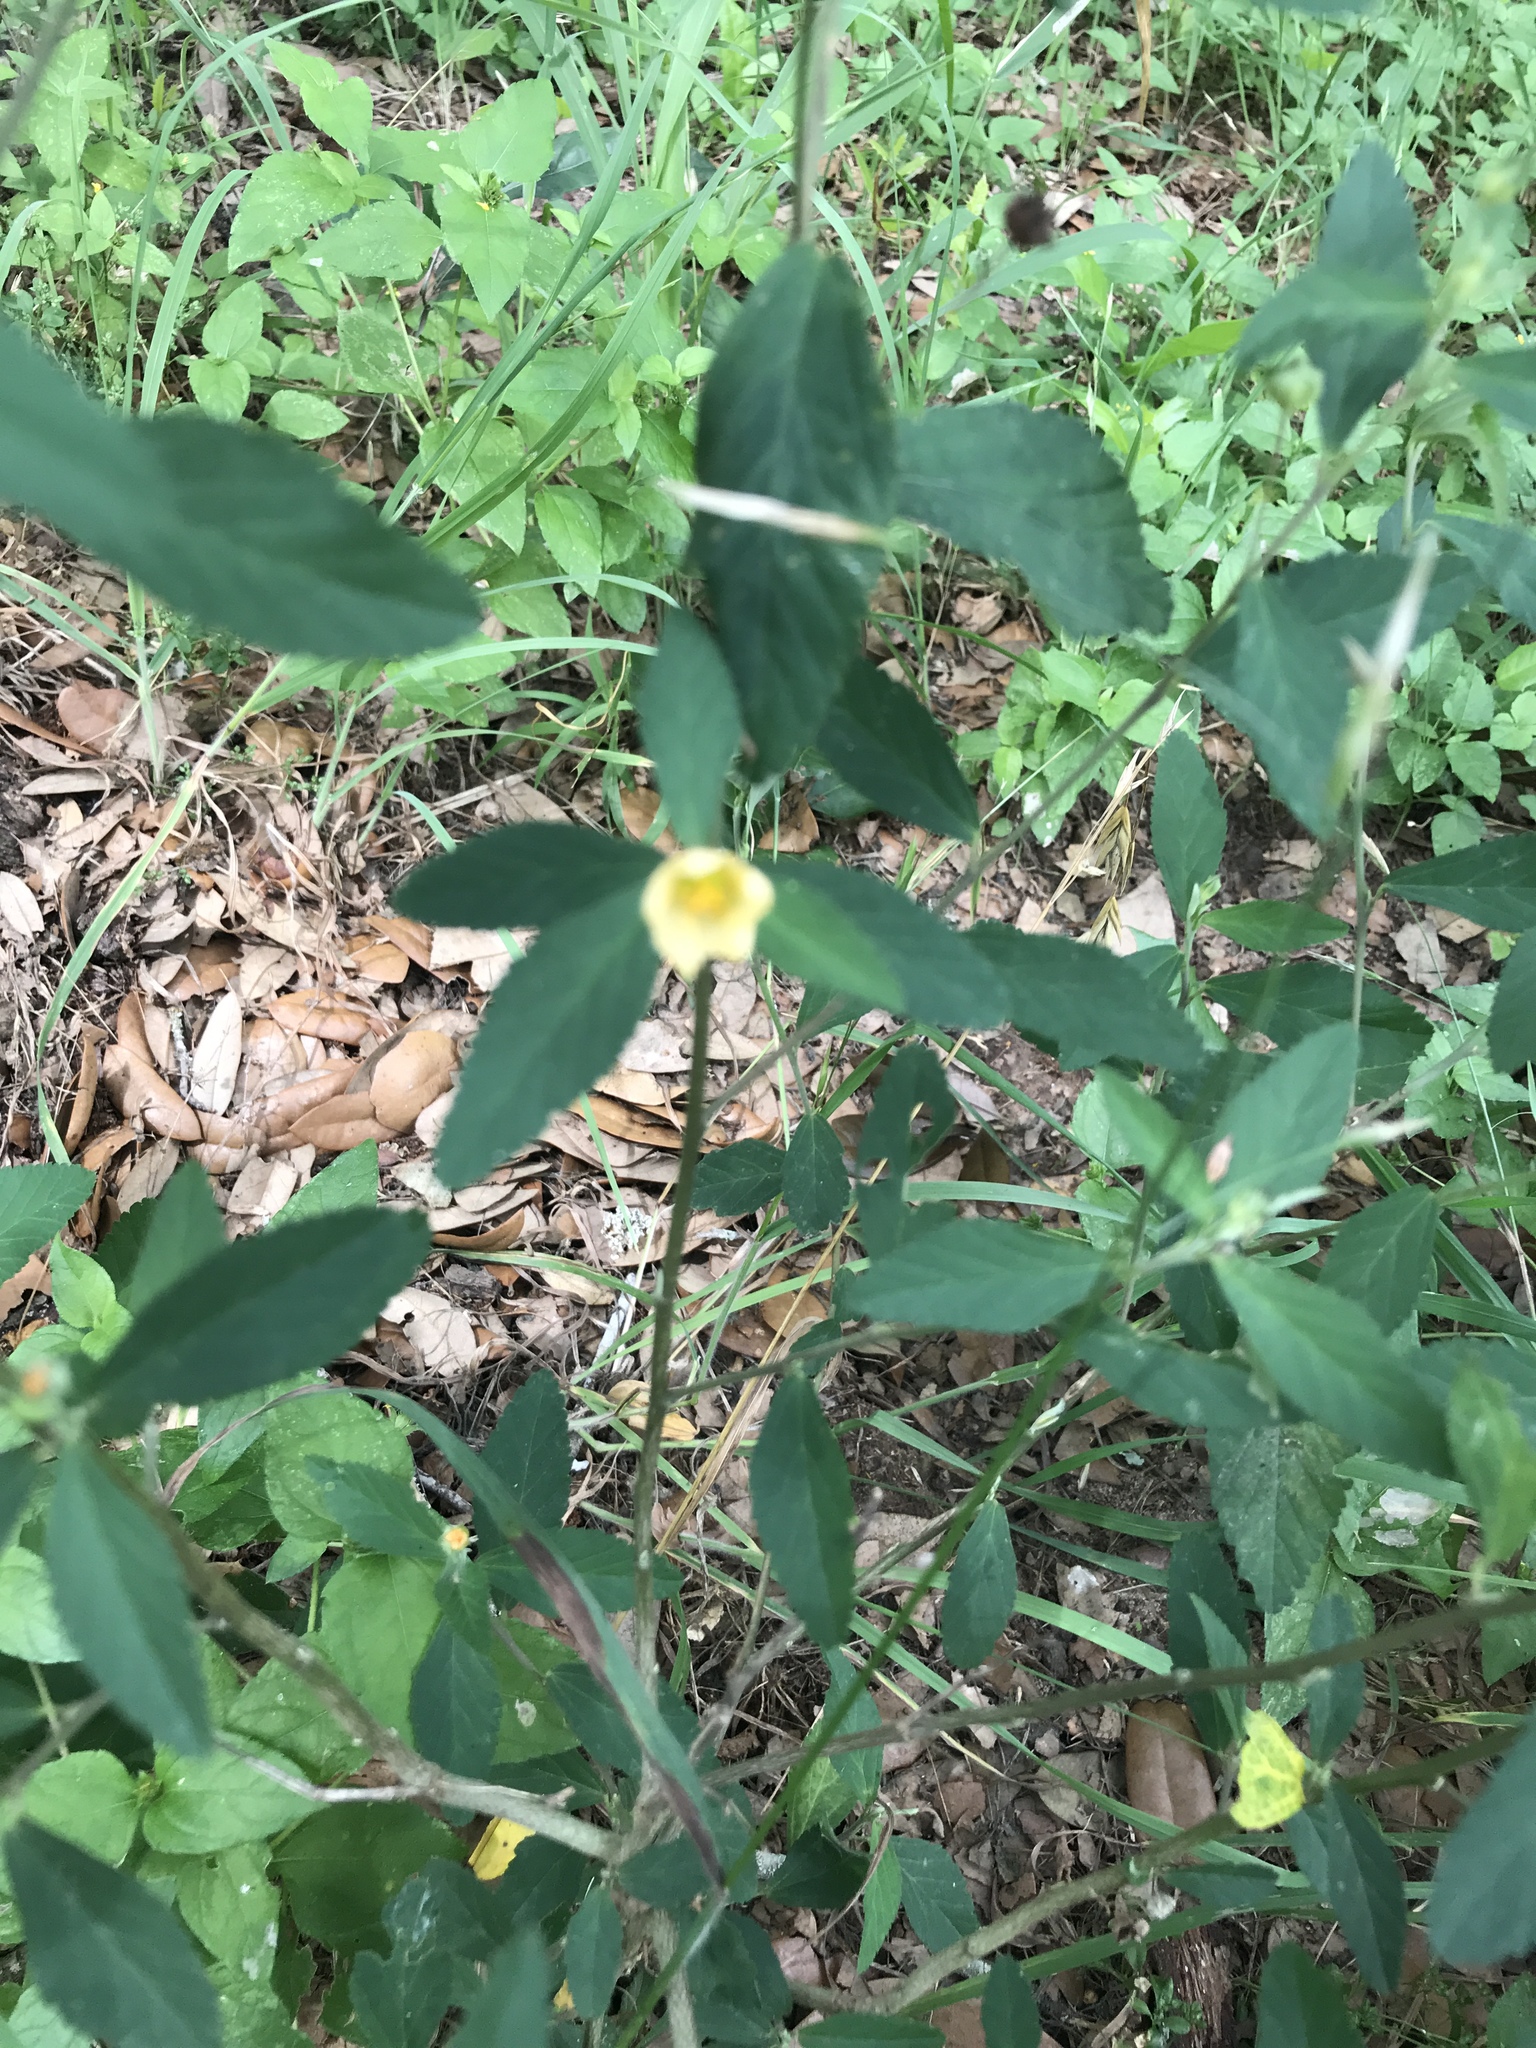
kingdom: Plantae
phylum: Tracheophyta
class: Magnoliopsida
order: Malvales
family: Malvaceae
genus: Sida
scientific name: Sida rhombifolia
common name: Queensland-hemp
